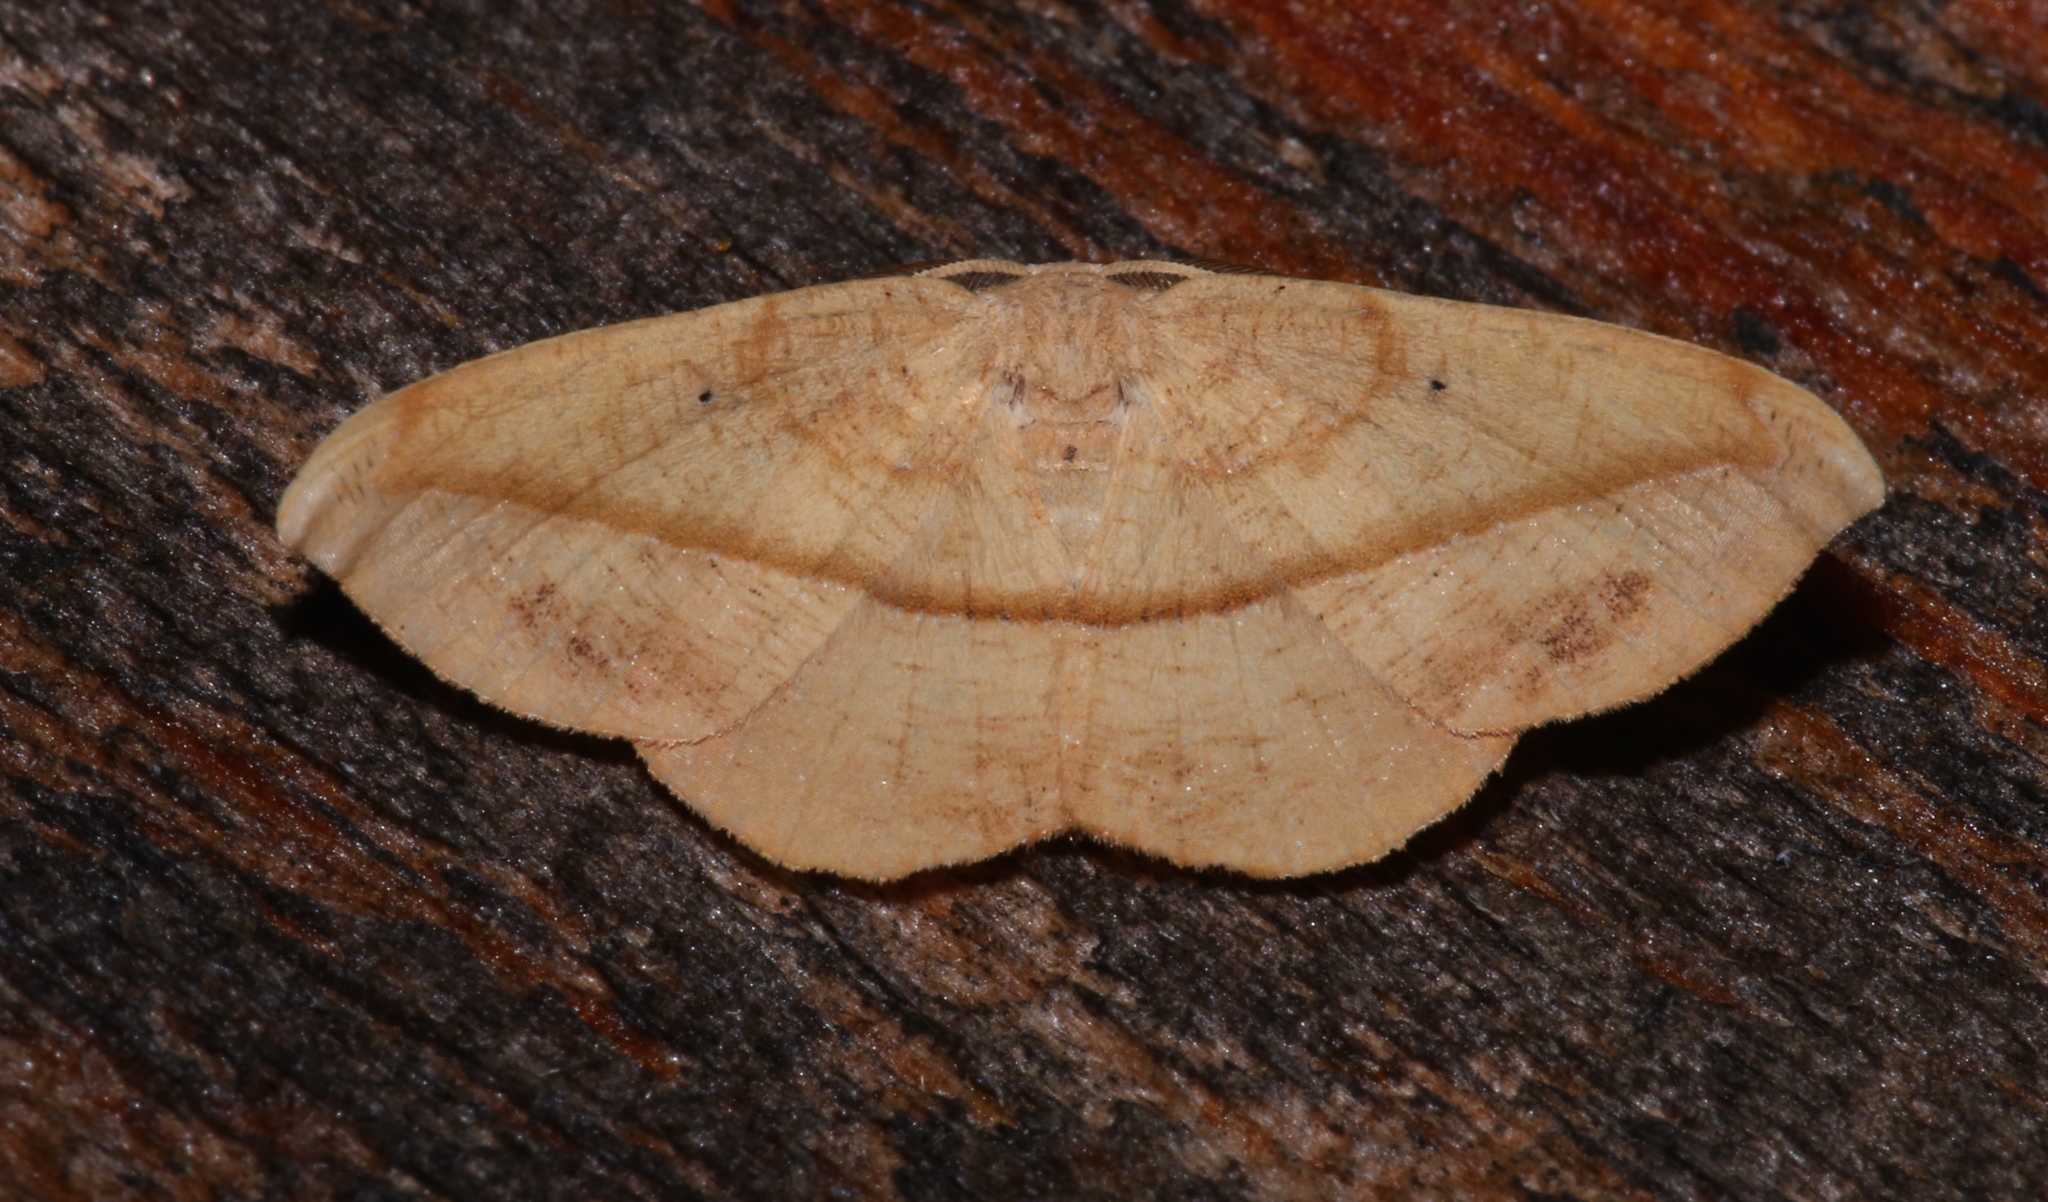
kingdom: Animalia
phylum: Arthropoda
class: Insecta
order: Lepidoptera
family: Geometridae
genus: Patalene
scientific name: Patalene olyzonaria
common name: Juniper geometer moth
